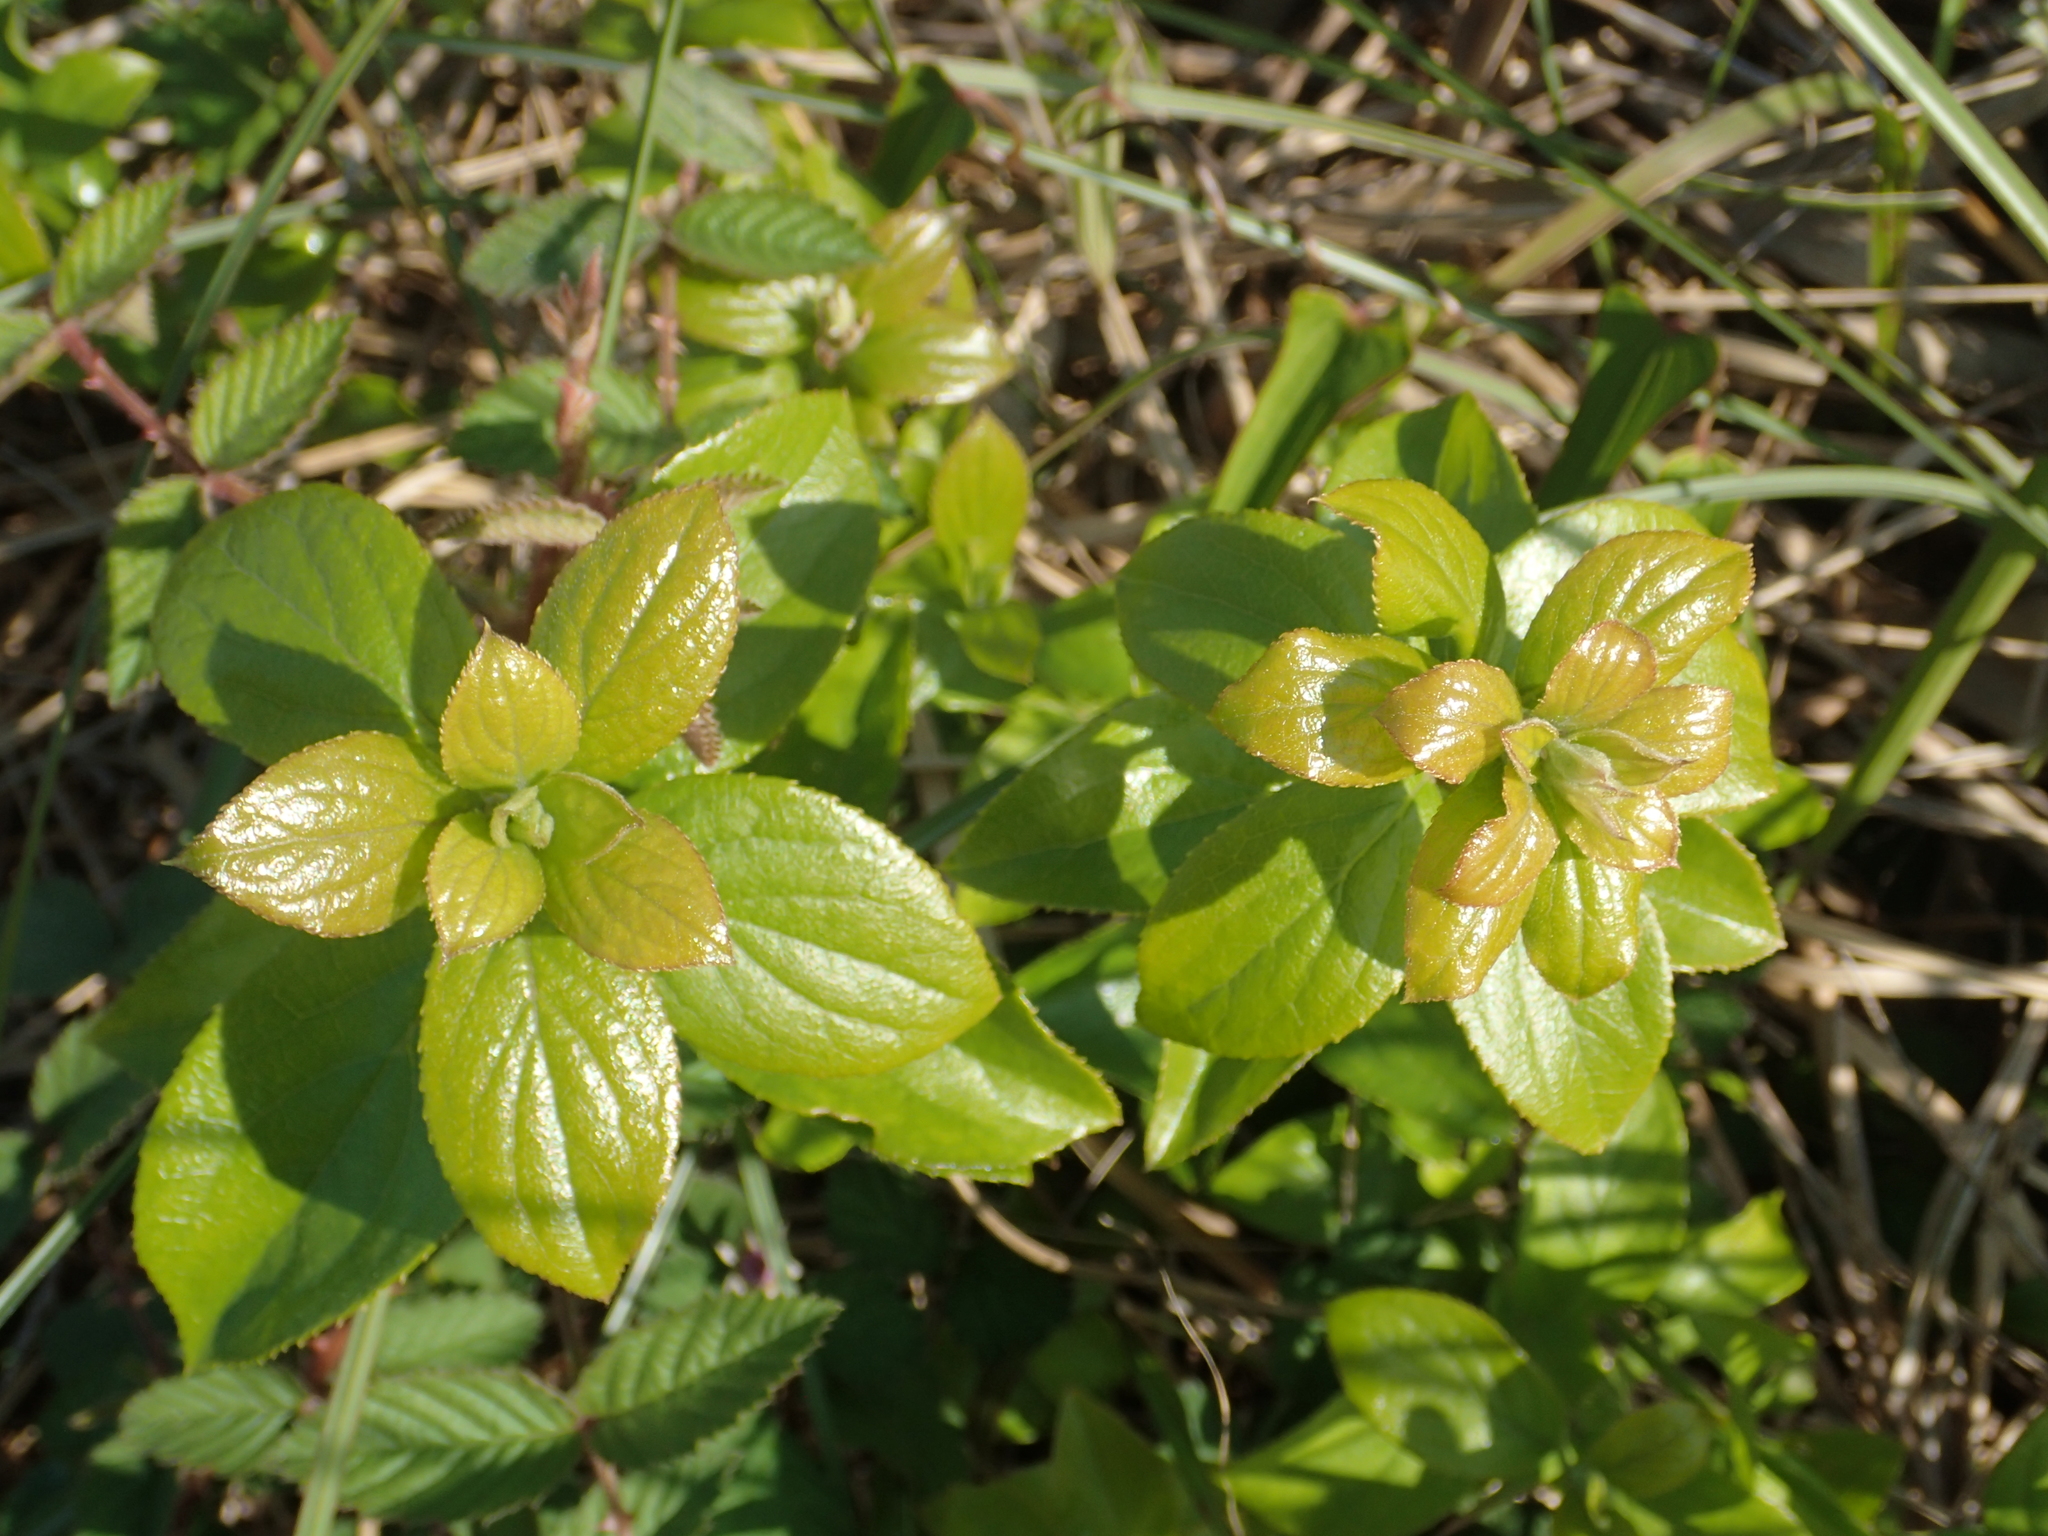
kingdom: Plantae
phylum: Tracheophyta
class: Magnoliopsida
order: Ericales
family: Symplocaceae
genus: Symplocos
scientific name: Symplocos paniculata
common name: Sapphire-berry
